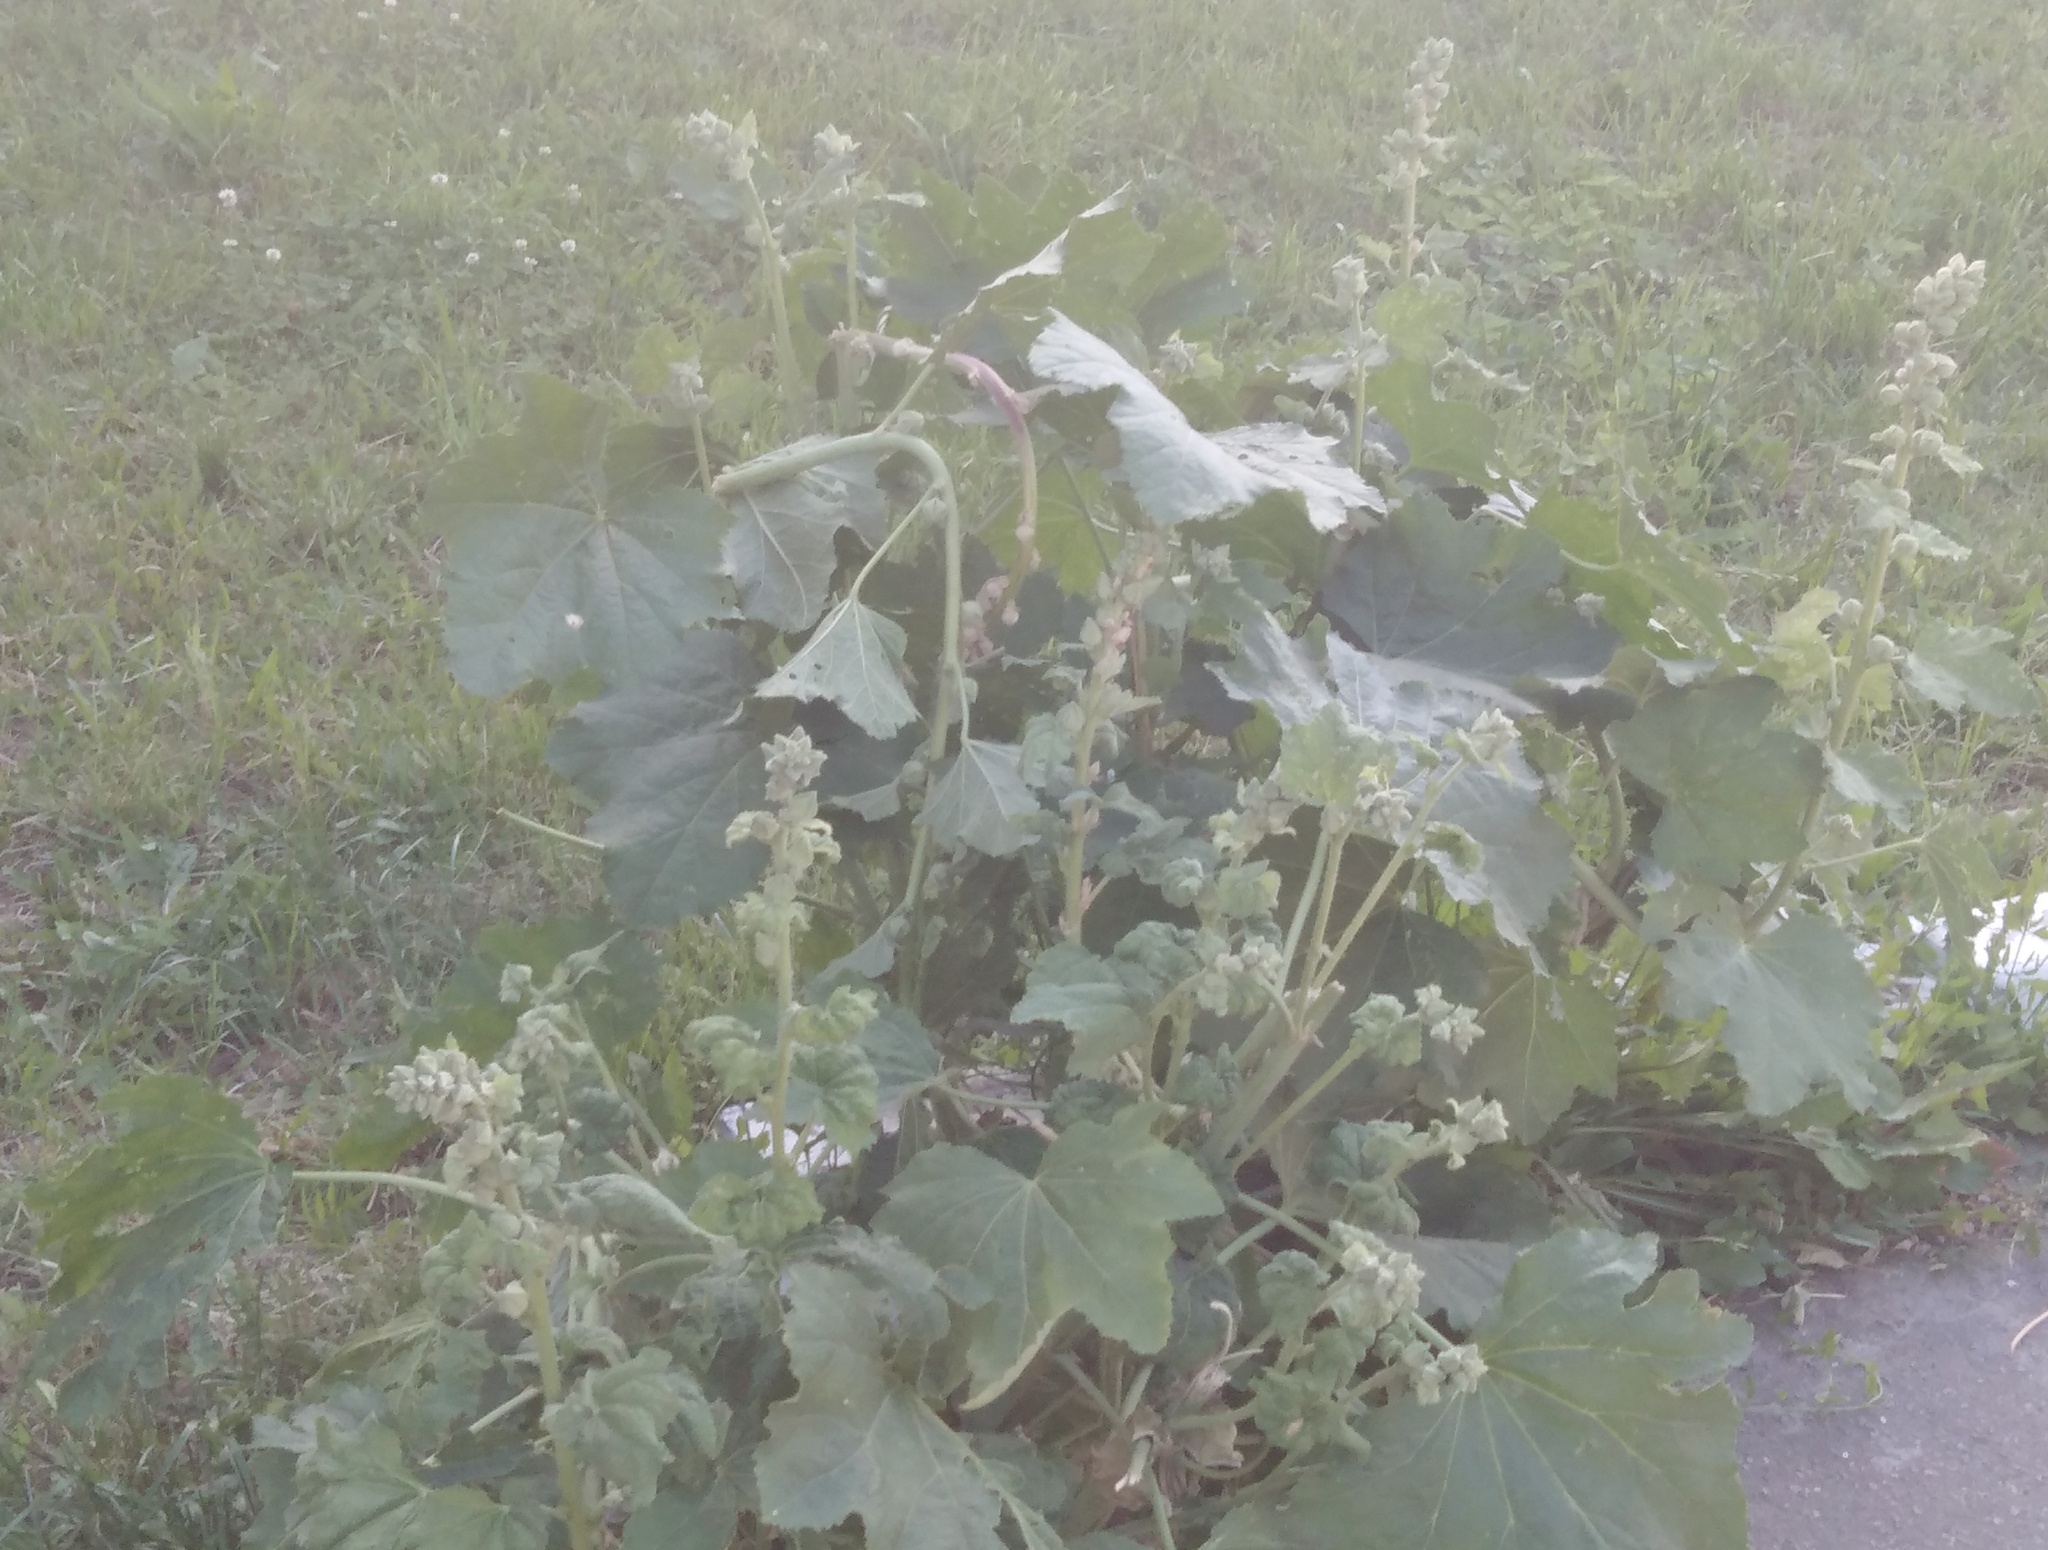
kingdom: Plantae
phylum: Tracheophyta
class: Magnoliopsida
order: Malvales
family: Malvaceae
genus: Malva
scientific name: Malva alcea
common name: Greater musk-mallow
